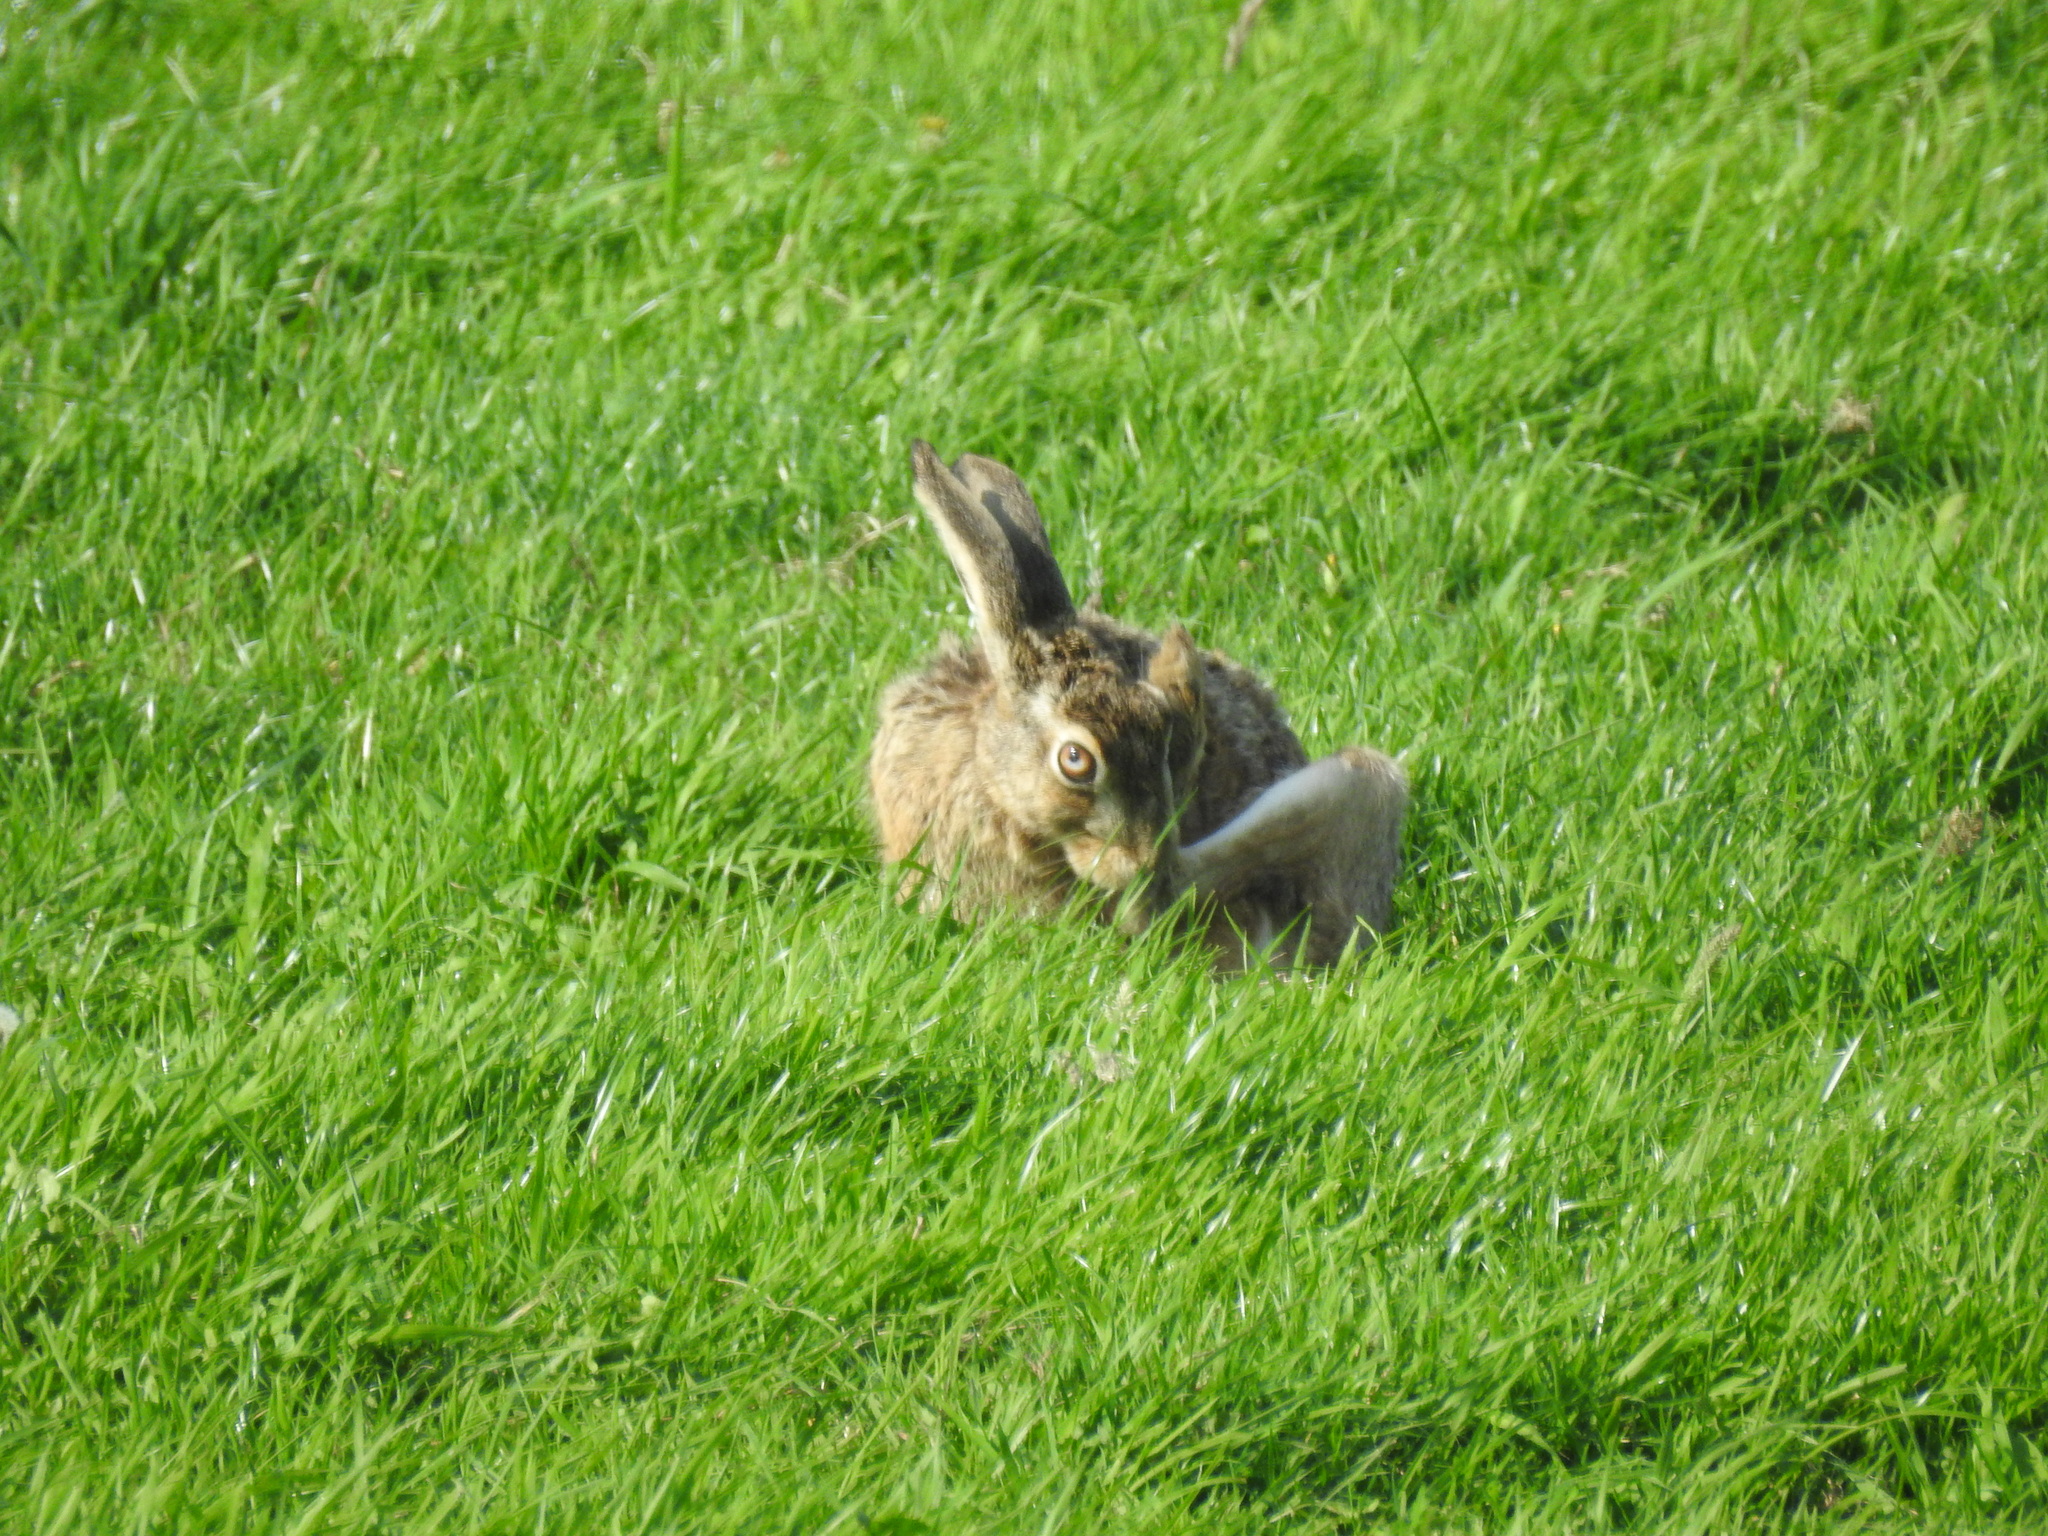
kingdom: Animalia
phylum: Chordata
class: Mammalia
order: Lagomorpha
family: Leporidae
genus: Lepus
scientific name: Lepus europaeus
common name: European hare
